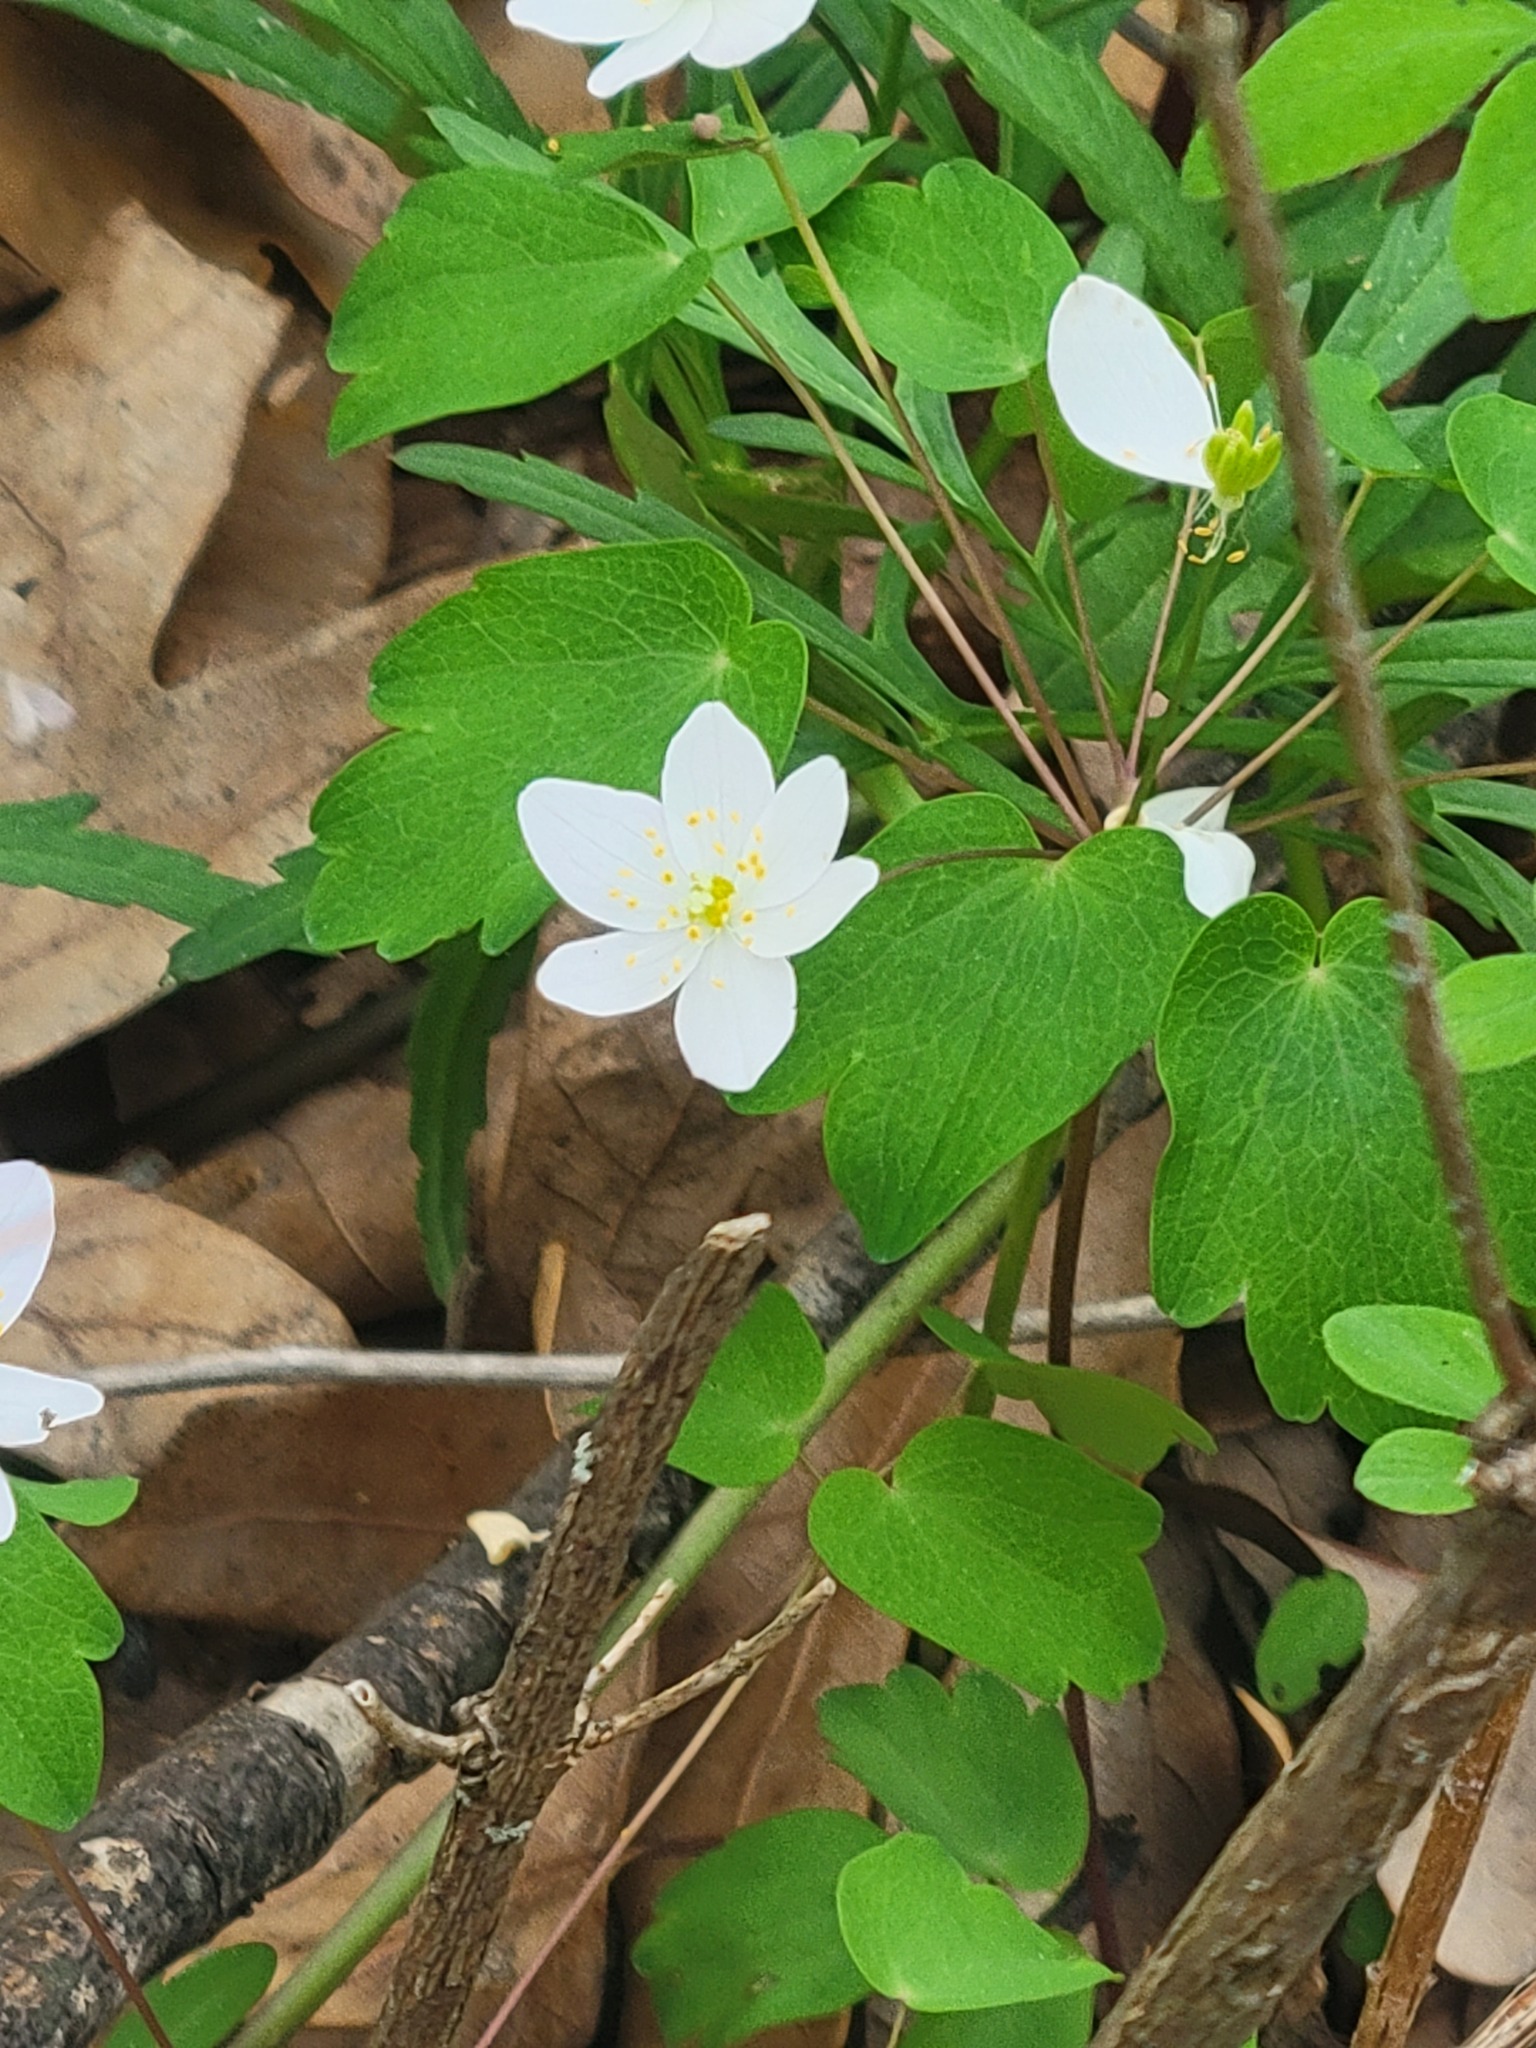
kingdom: Plantae
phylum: Tracheophyta
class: Magnoliopsida
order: Ranunculales
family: Ranunculaceae
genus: Thalictrum
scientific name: Thalictrum thalictroides
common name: Rue-anemone
